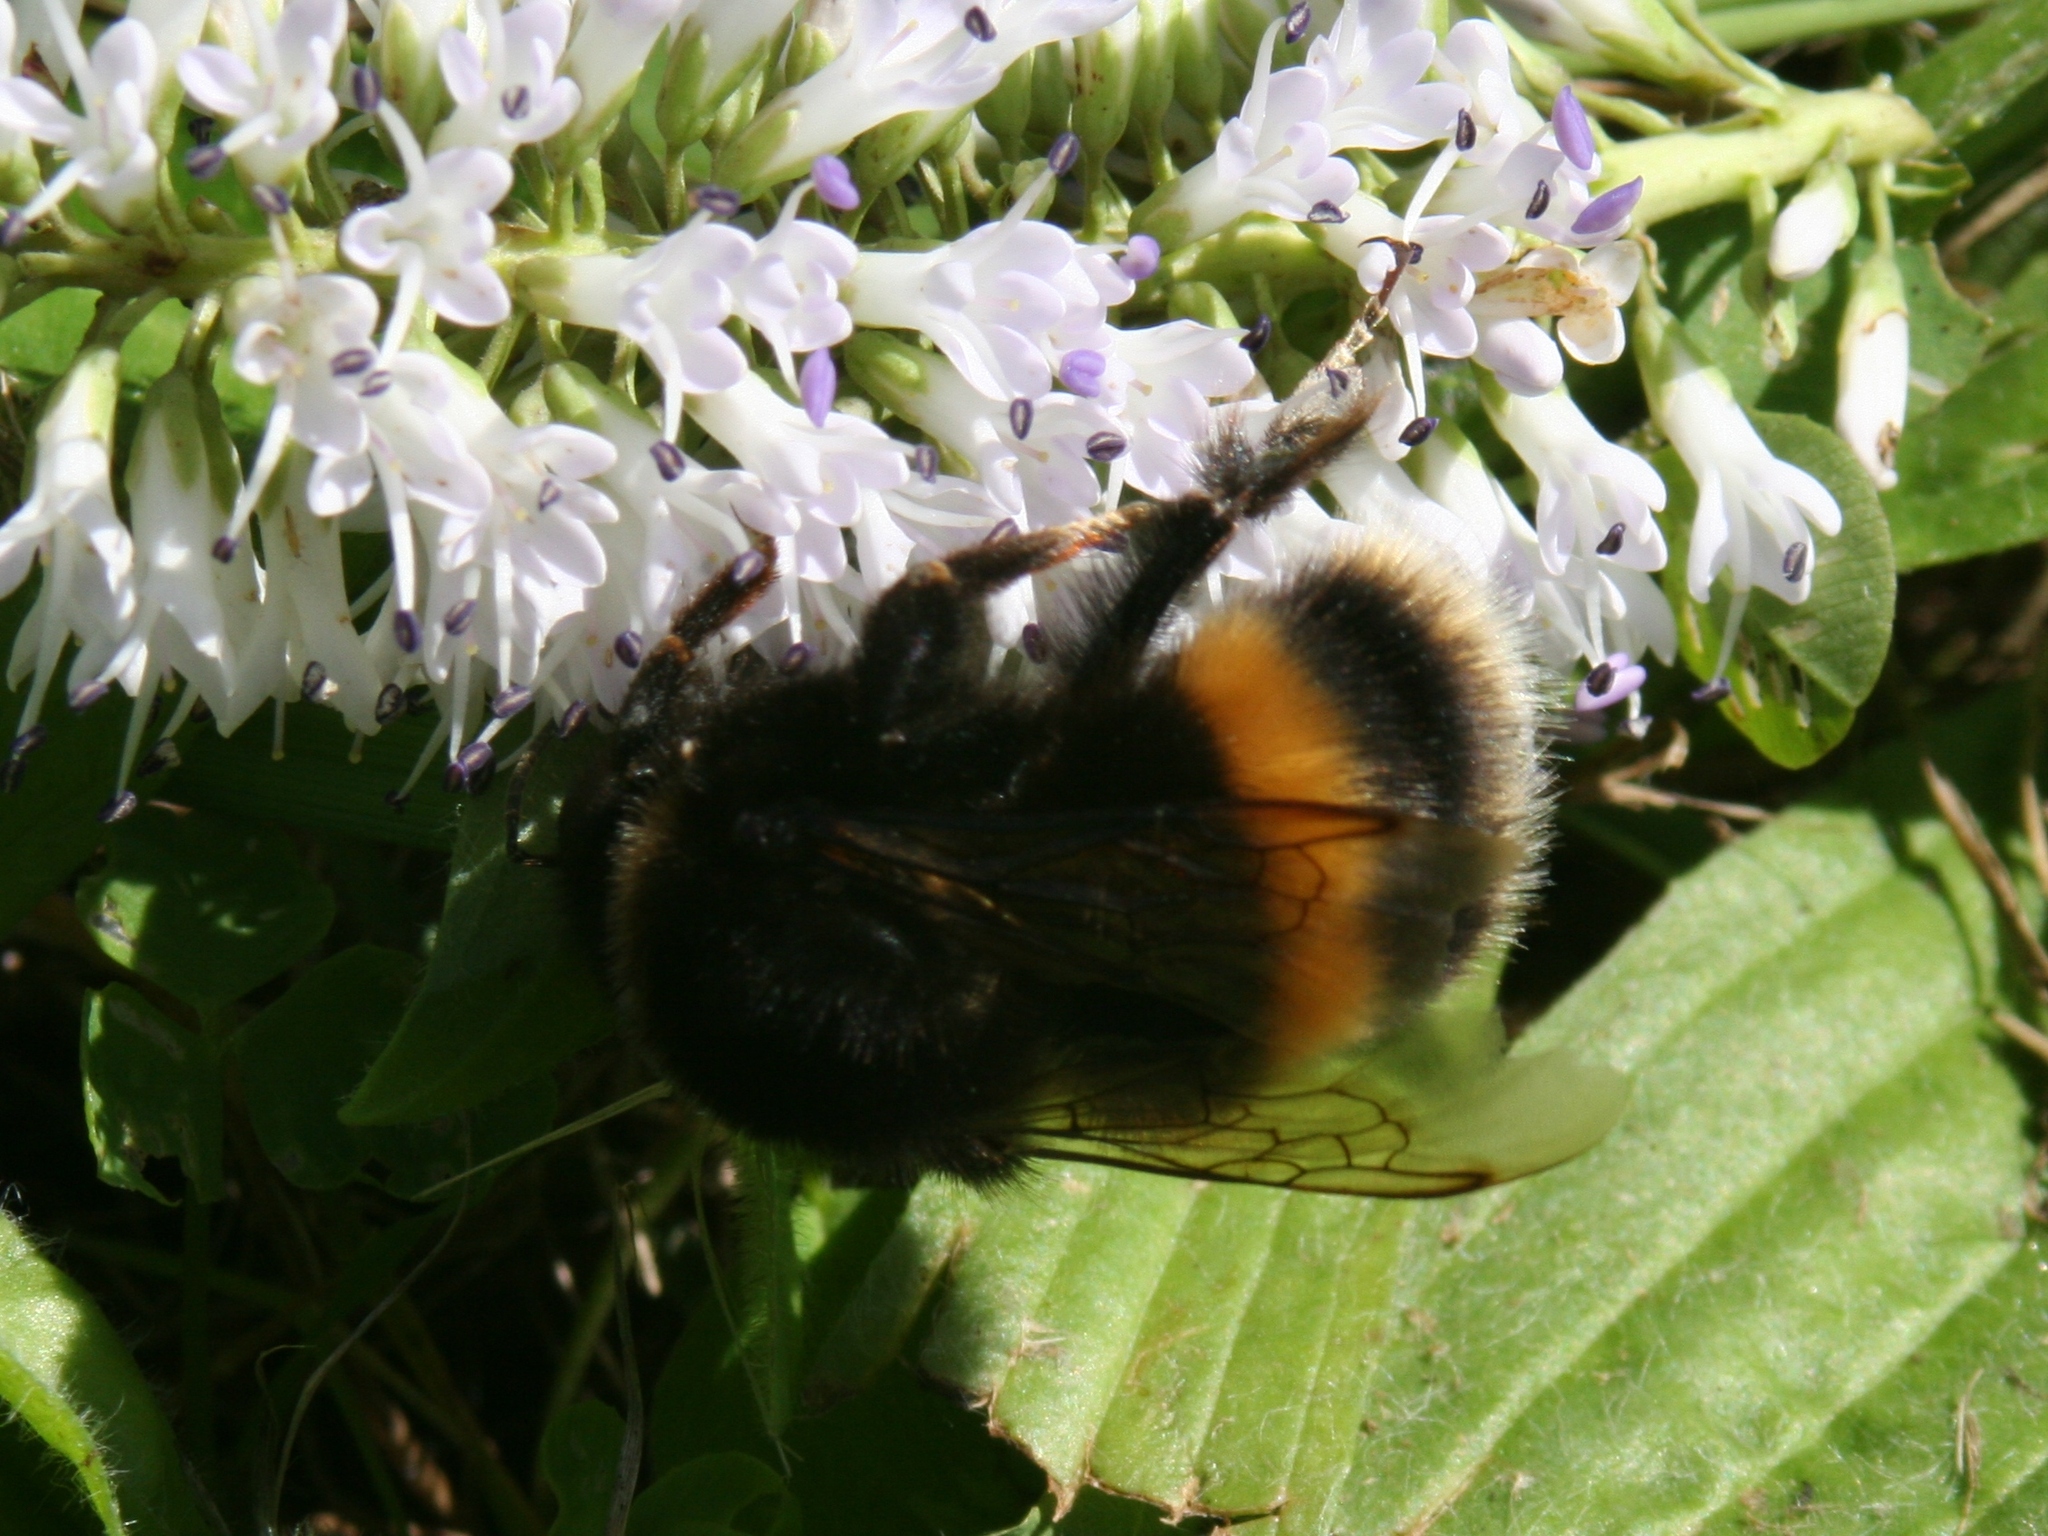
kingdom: Animalia
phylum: Arthropoda
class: Insecta
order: Hymenoptera
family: Apidae
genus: Bombus
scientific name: Bombus terrestris
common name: Buff-tailed bumblebee
